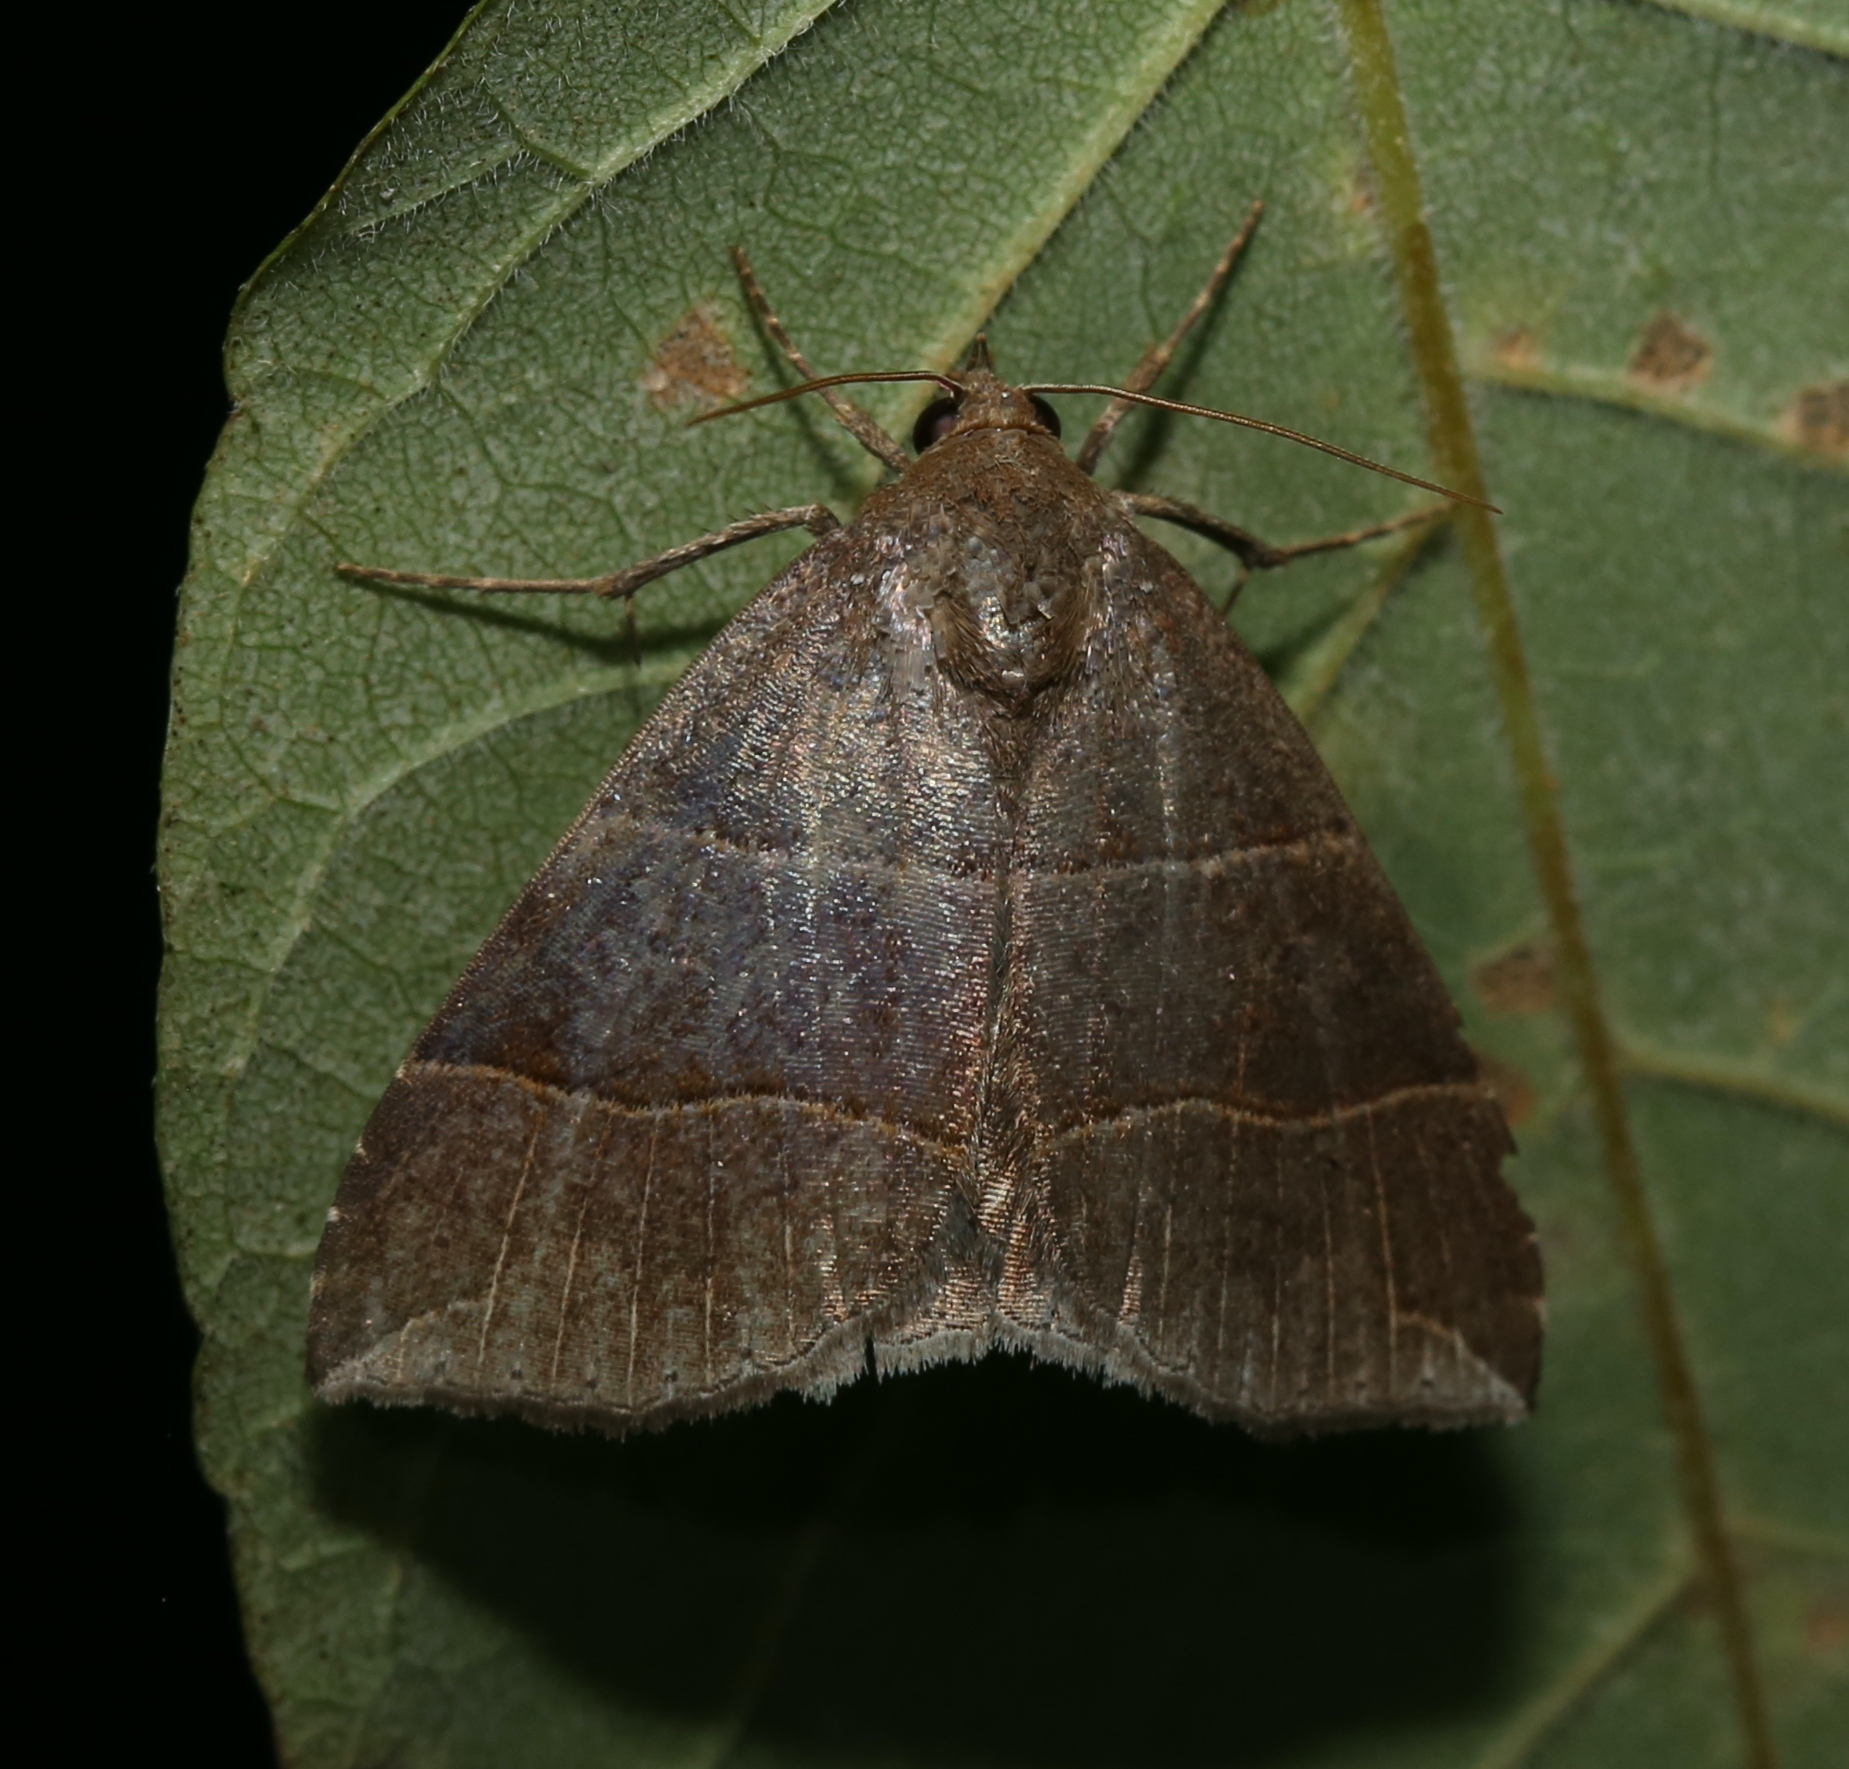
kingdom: Animalia
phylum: Arthropoda
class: Insecta
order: Lepidoptera
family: Erebidae
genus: Parallelia
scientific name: Parallelia bistriaris
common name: Maple looper moth
